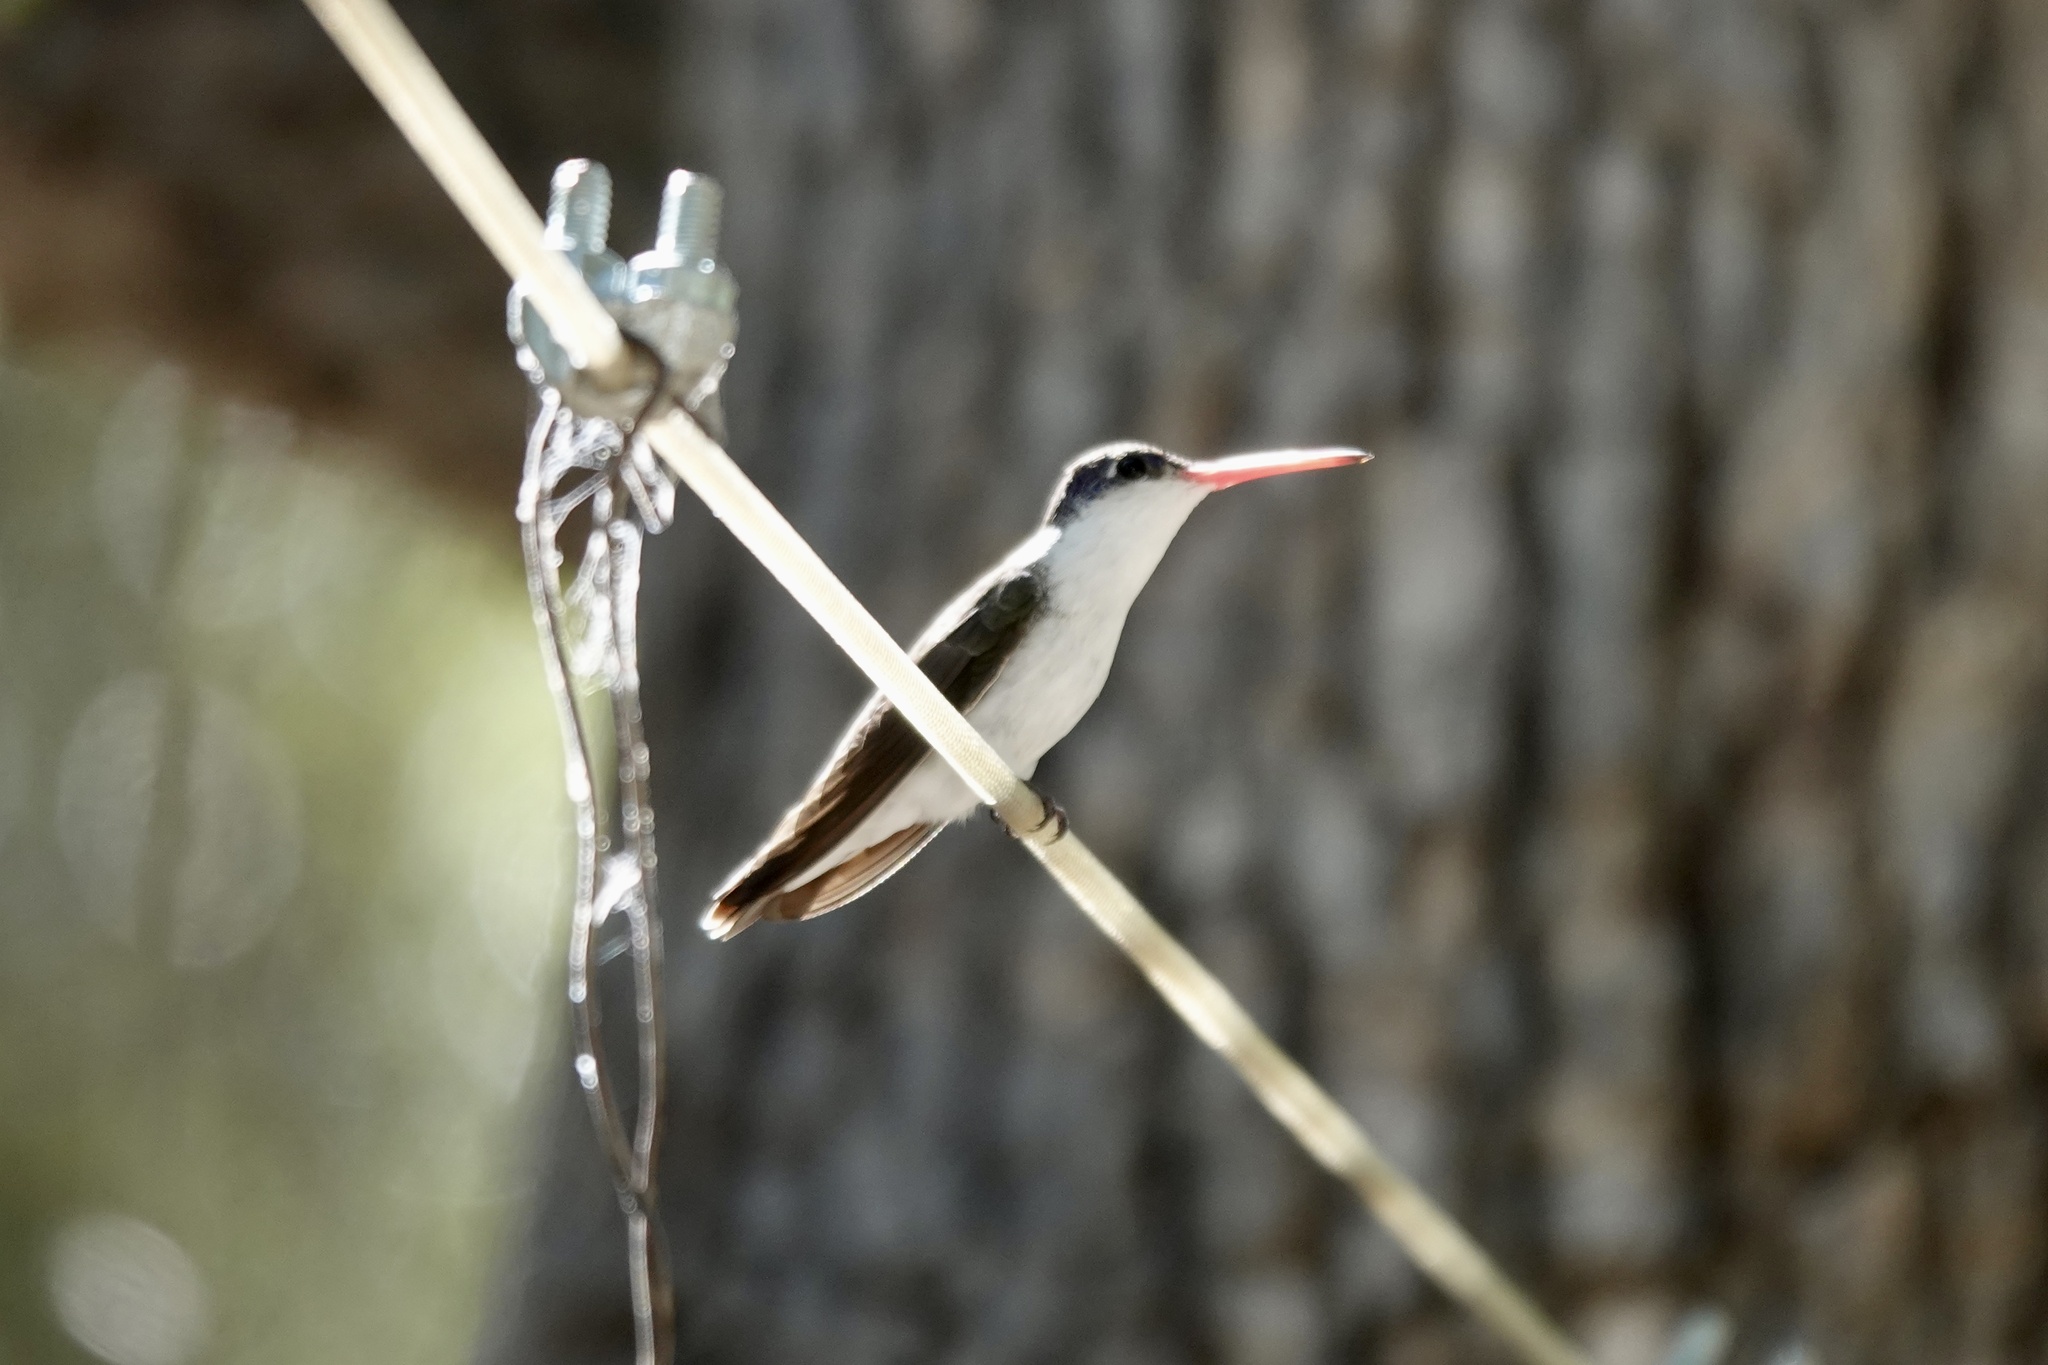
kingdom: Animalia
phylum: Chordata
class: Aves
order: Apodiformes
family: Trochilidae
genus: Leucolia
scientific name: Leucolia violiceps
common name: Violet-crowned hummingbird
